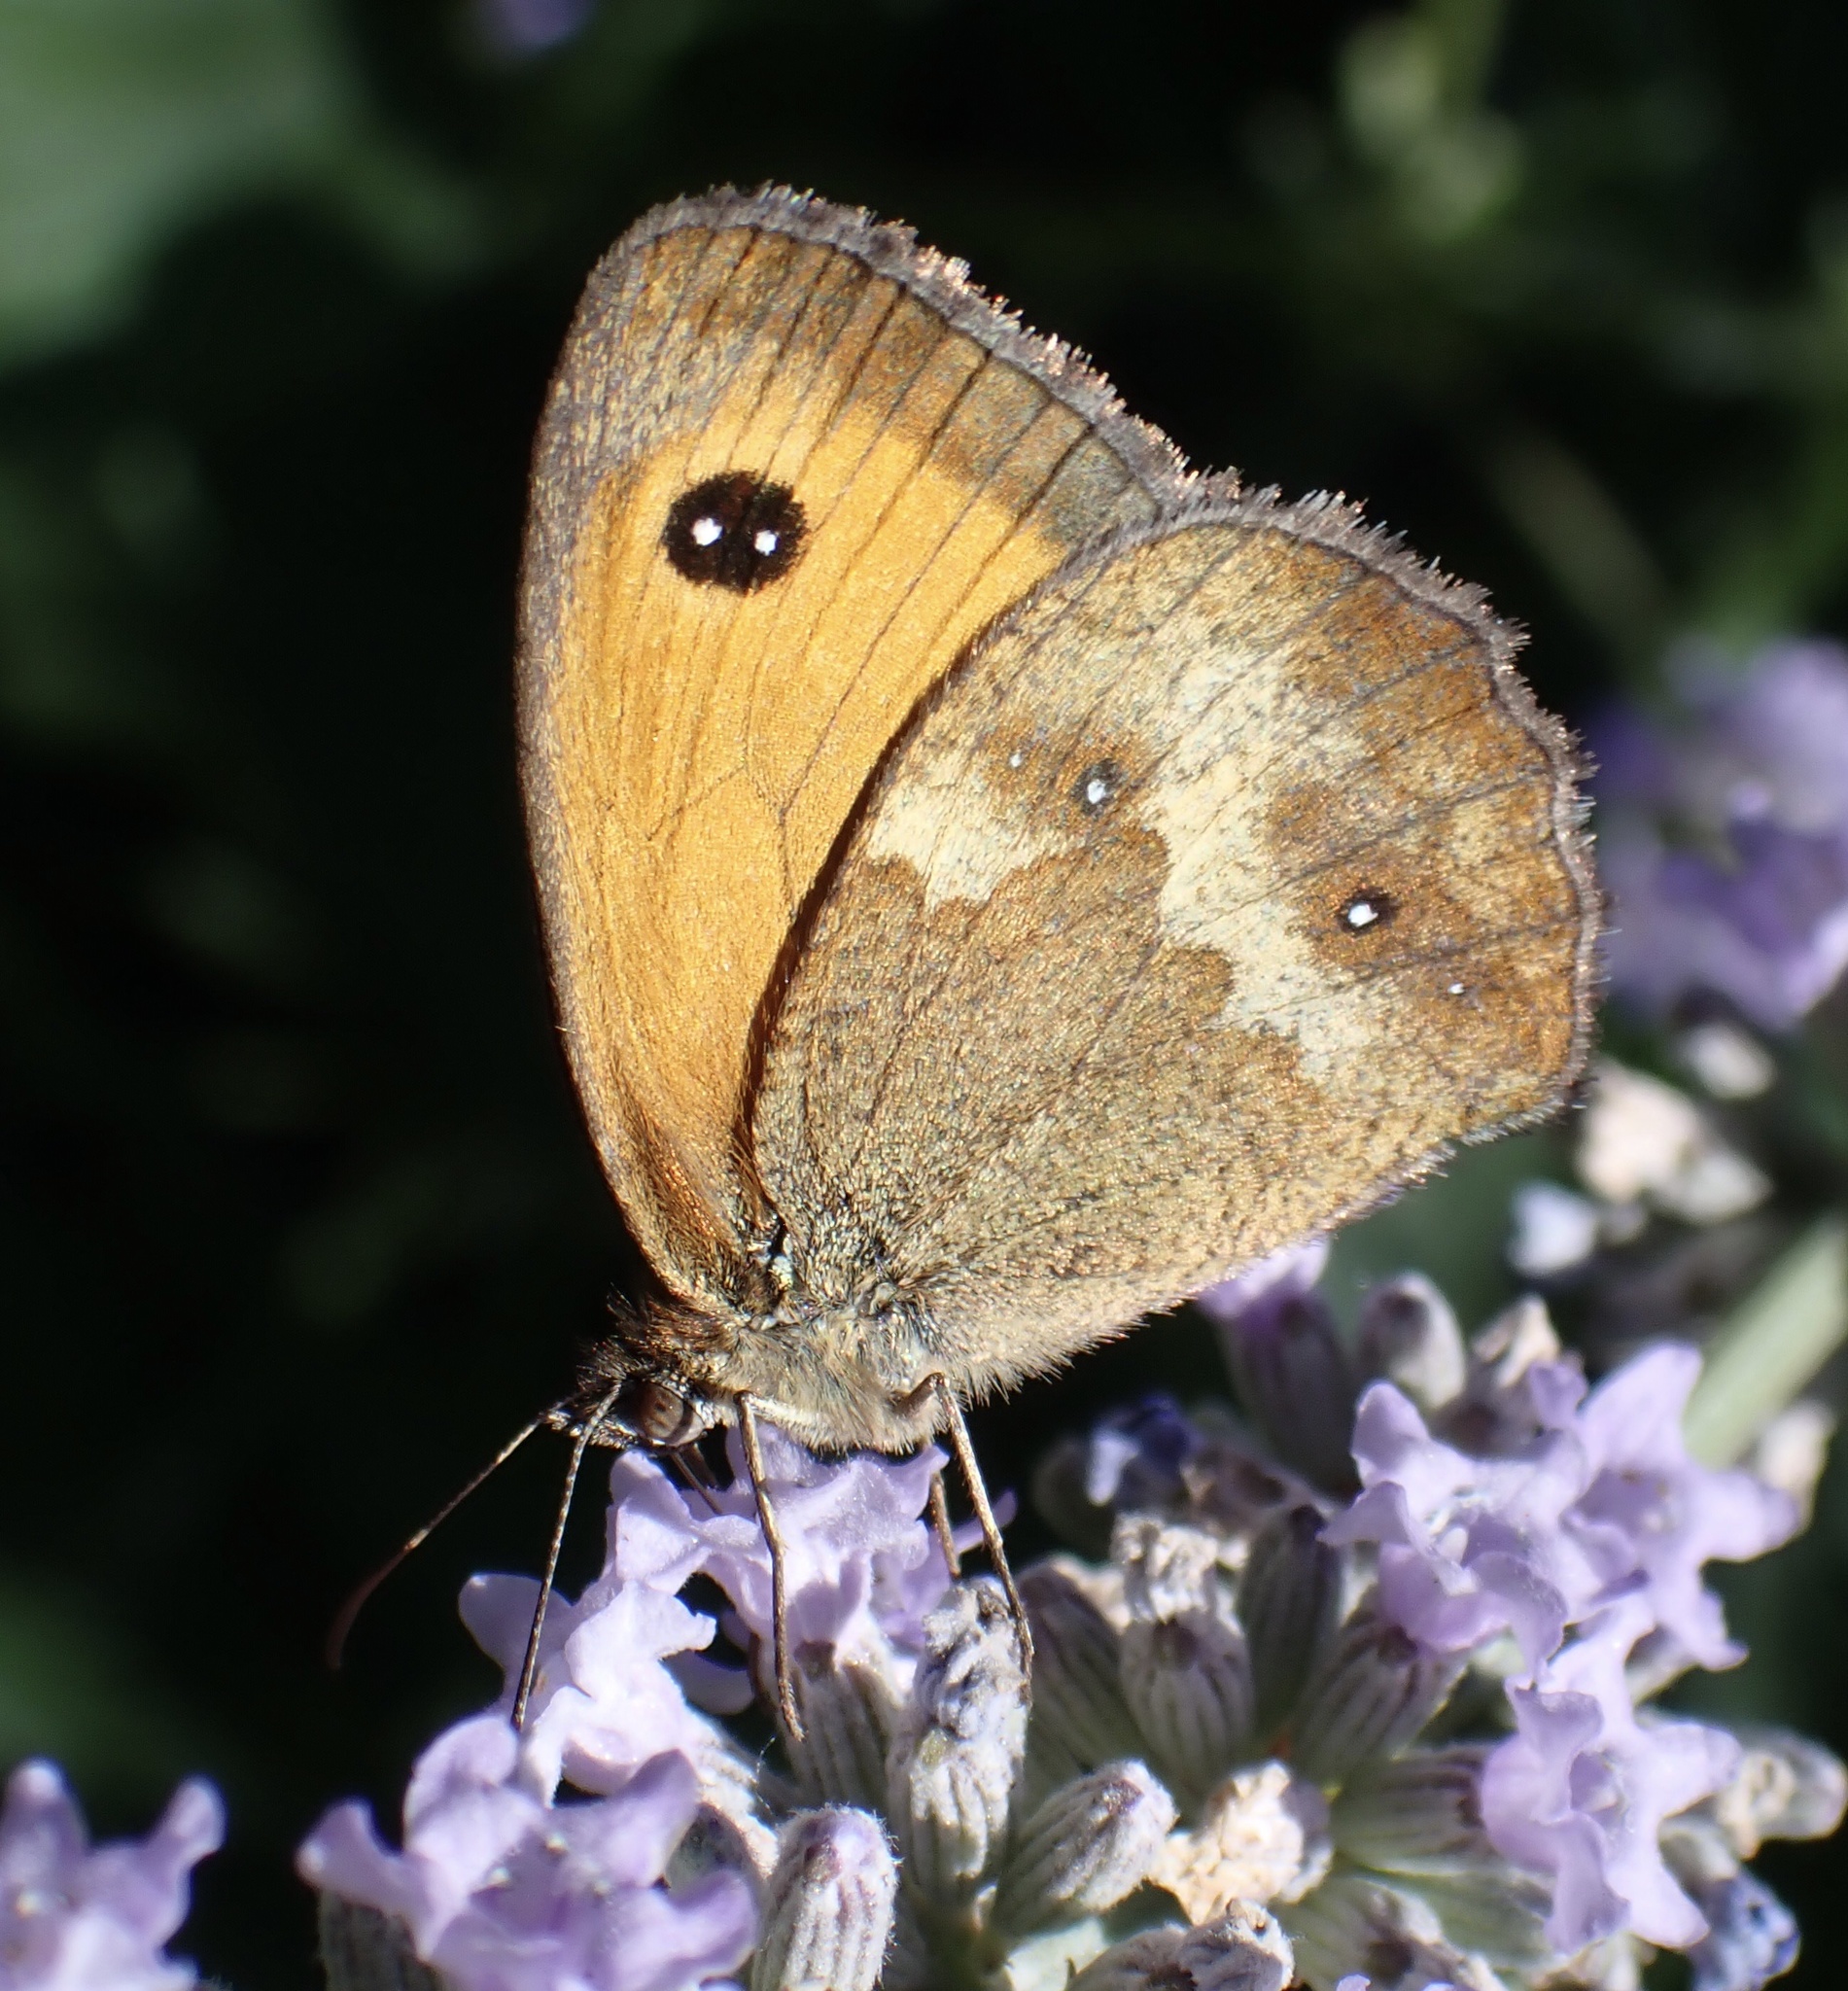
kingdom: Animalia
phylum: Arthropoda
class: Insecta
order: Lepidoptera
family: Nymphalidae
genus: Pyronia
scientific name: Pyronia tithonus
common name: Gatekeeper
